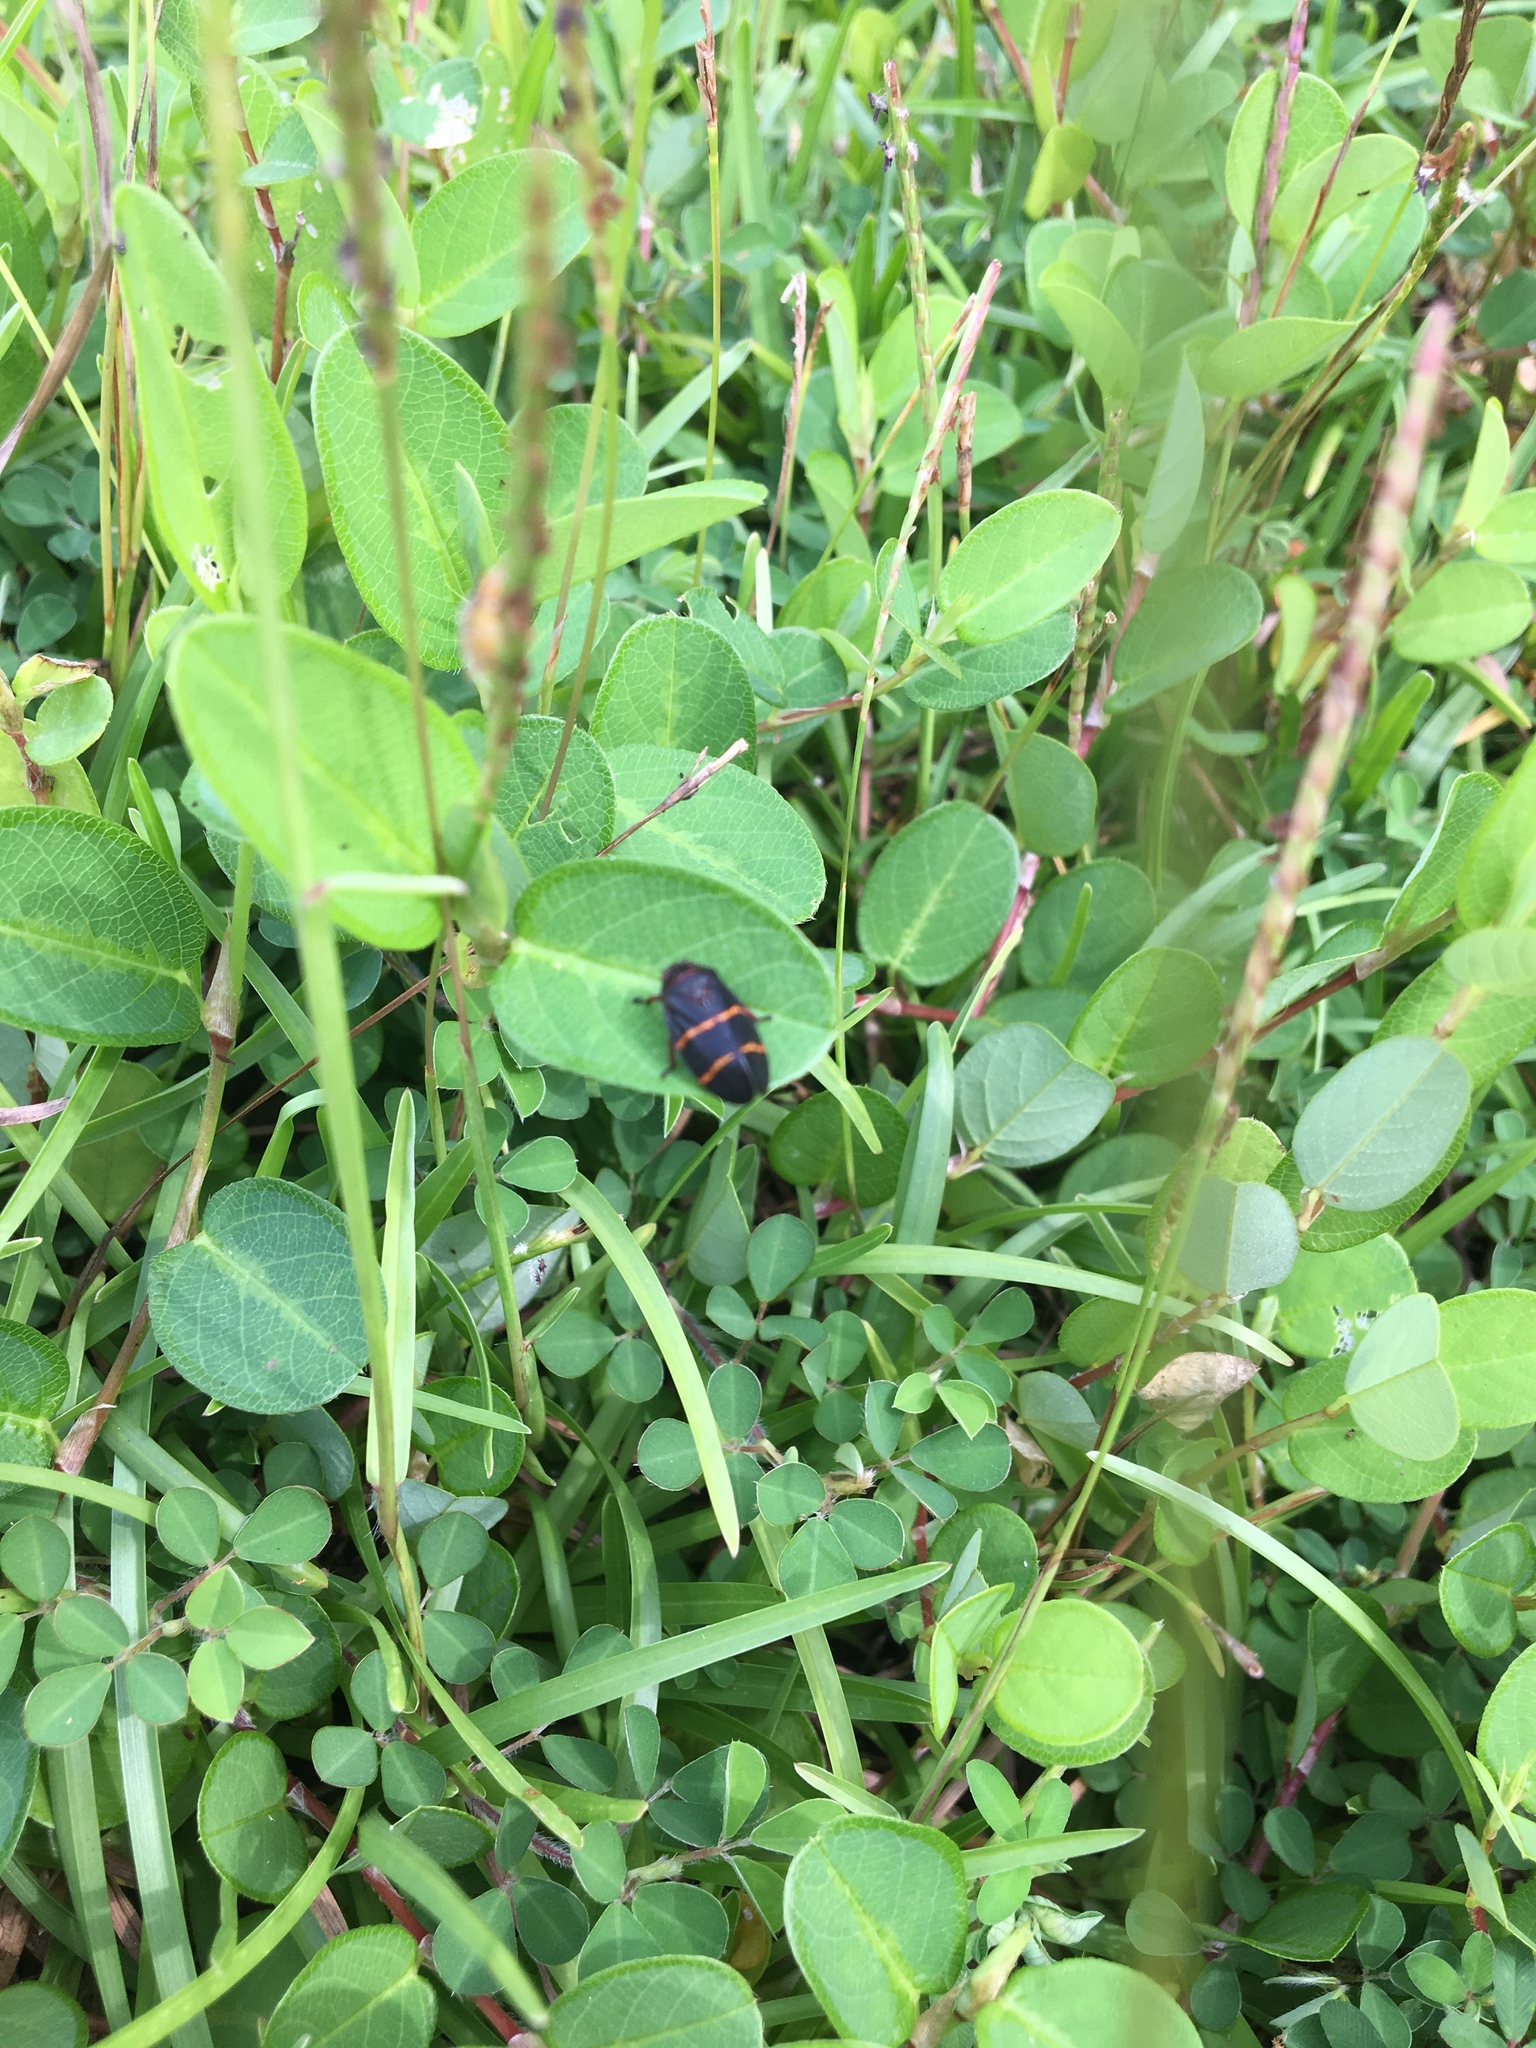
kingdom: Animalia
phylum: Arthropoda
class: Insecta
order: Hemiptera
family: Cercopidae
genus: Prosapia
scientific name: Prosapia bicincta
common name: Twolined spittlebug
